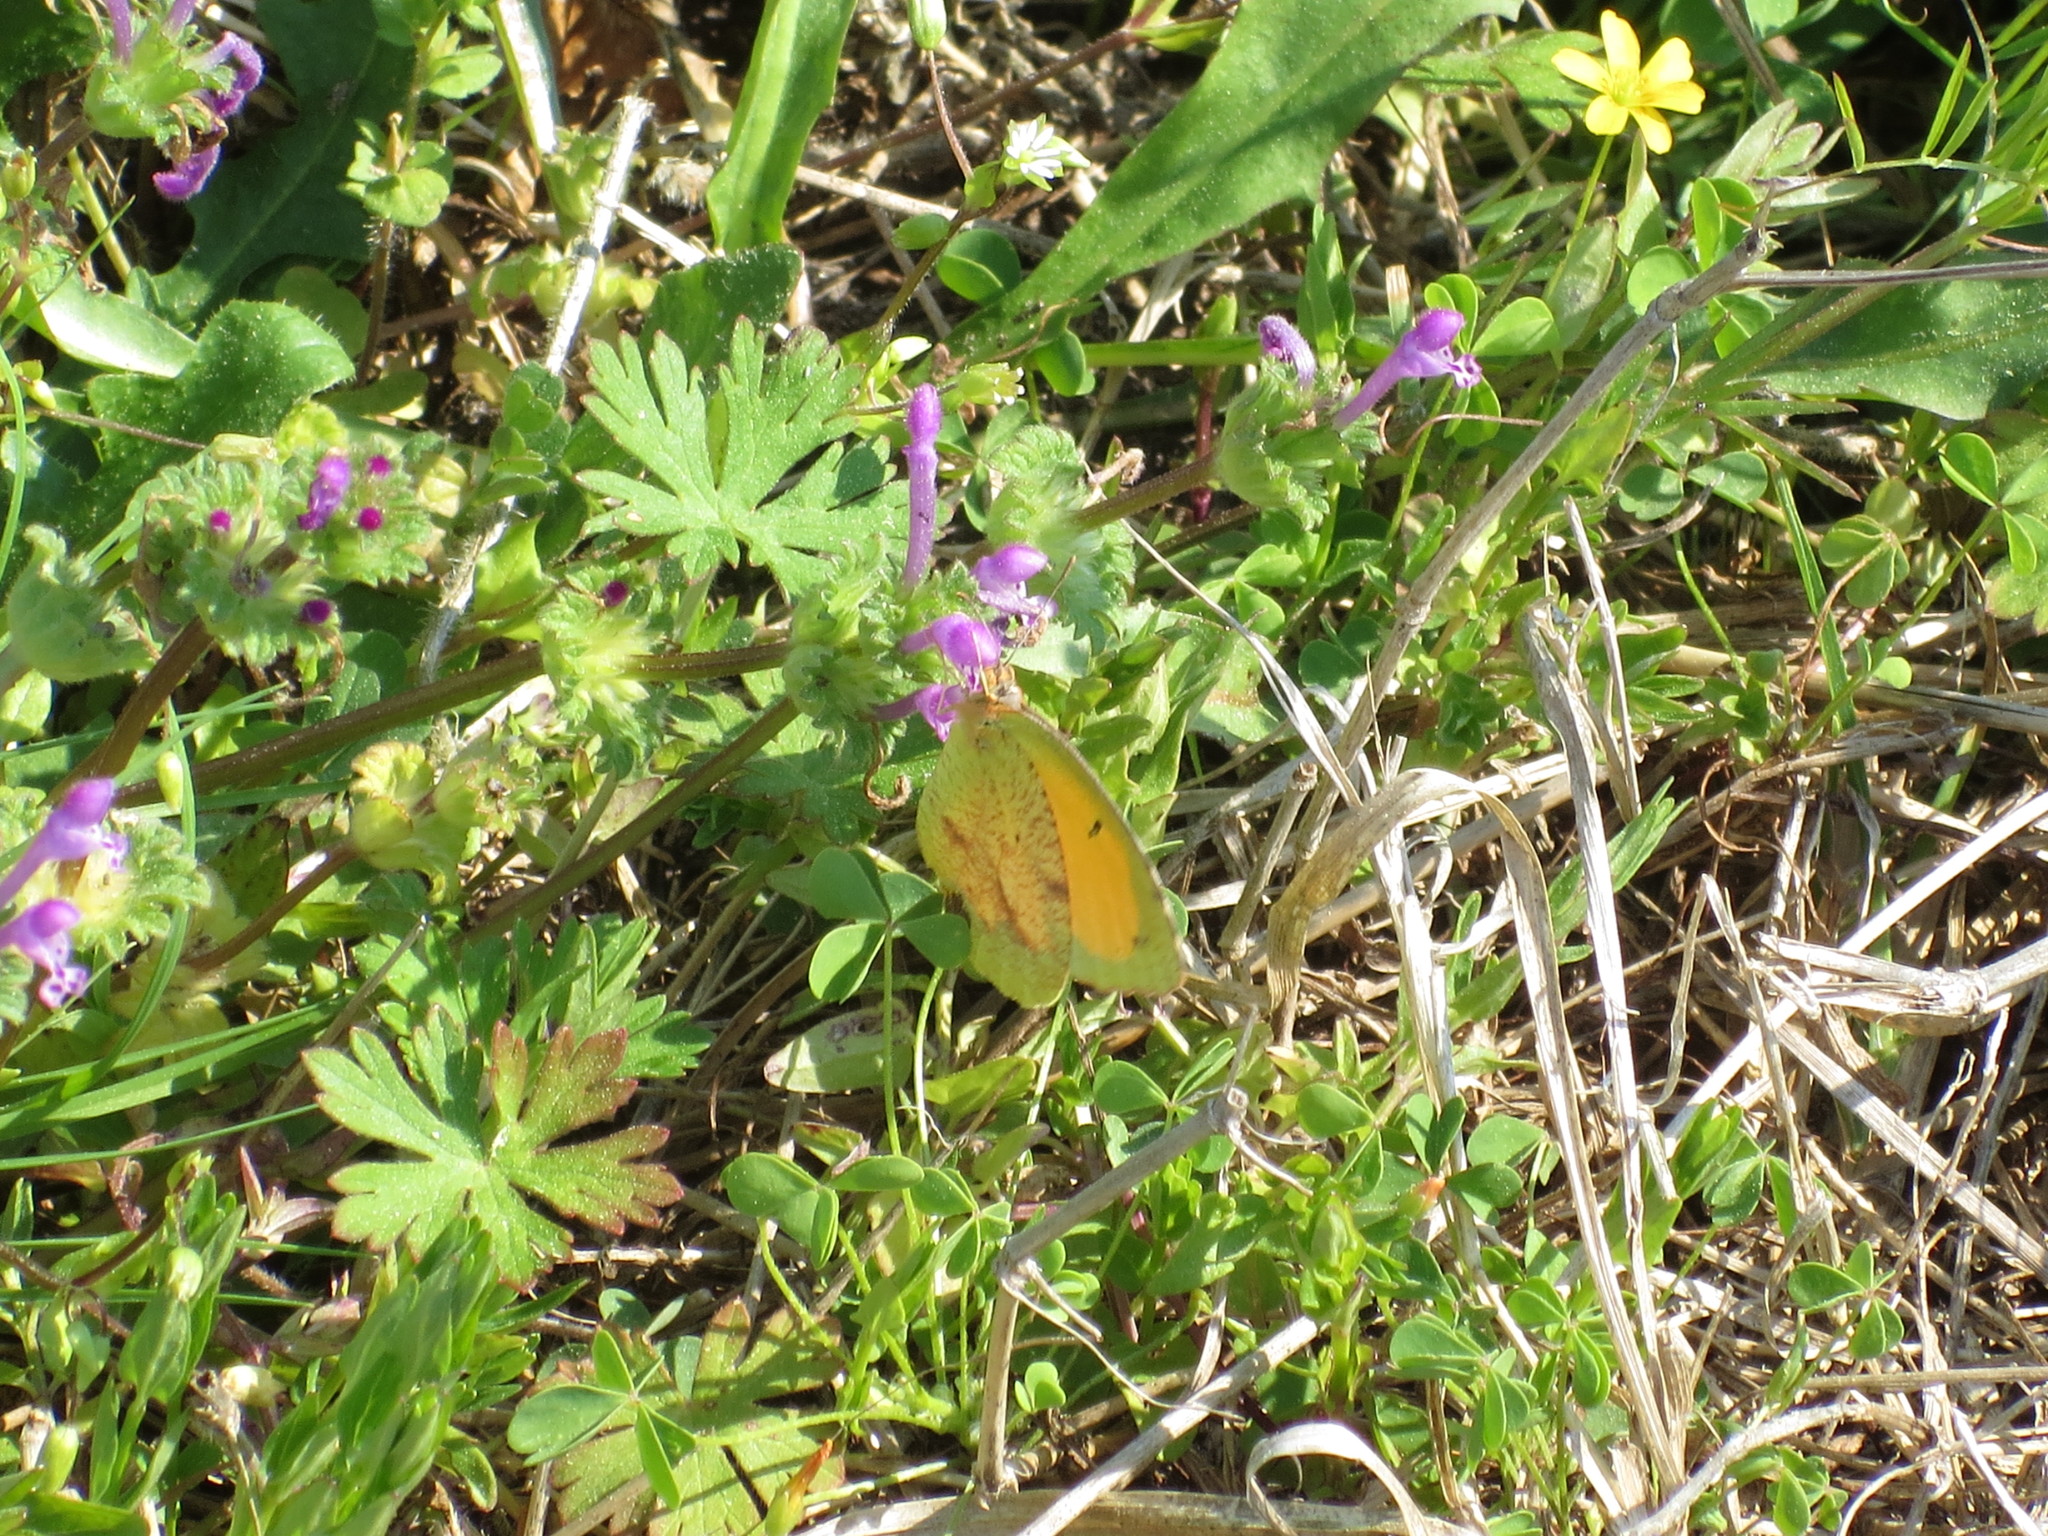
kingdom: Animalia
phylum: Arthropoda
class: Insecta
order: Lepidoptera
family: Pieridae
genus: Abaeis
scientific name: Abaeis nicippe
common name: Sleepy orange
